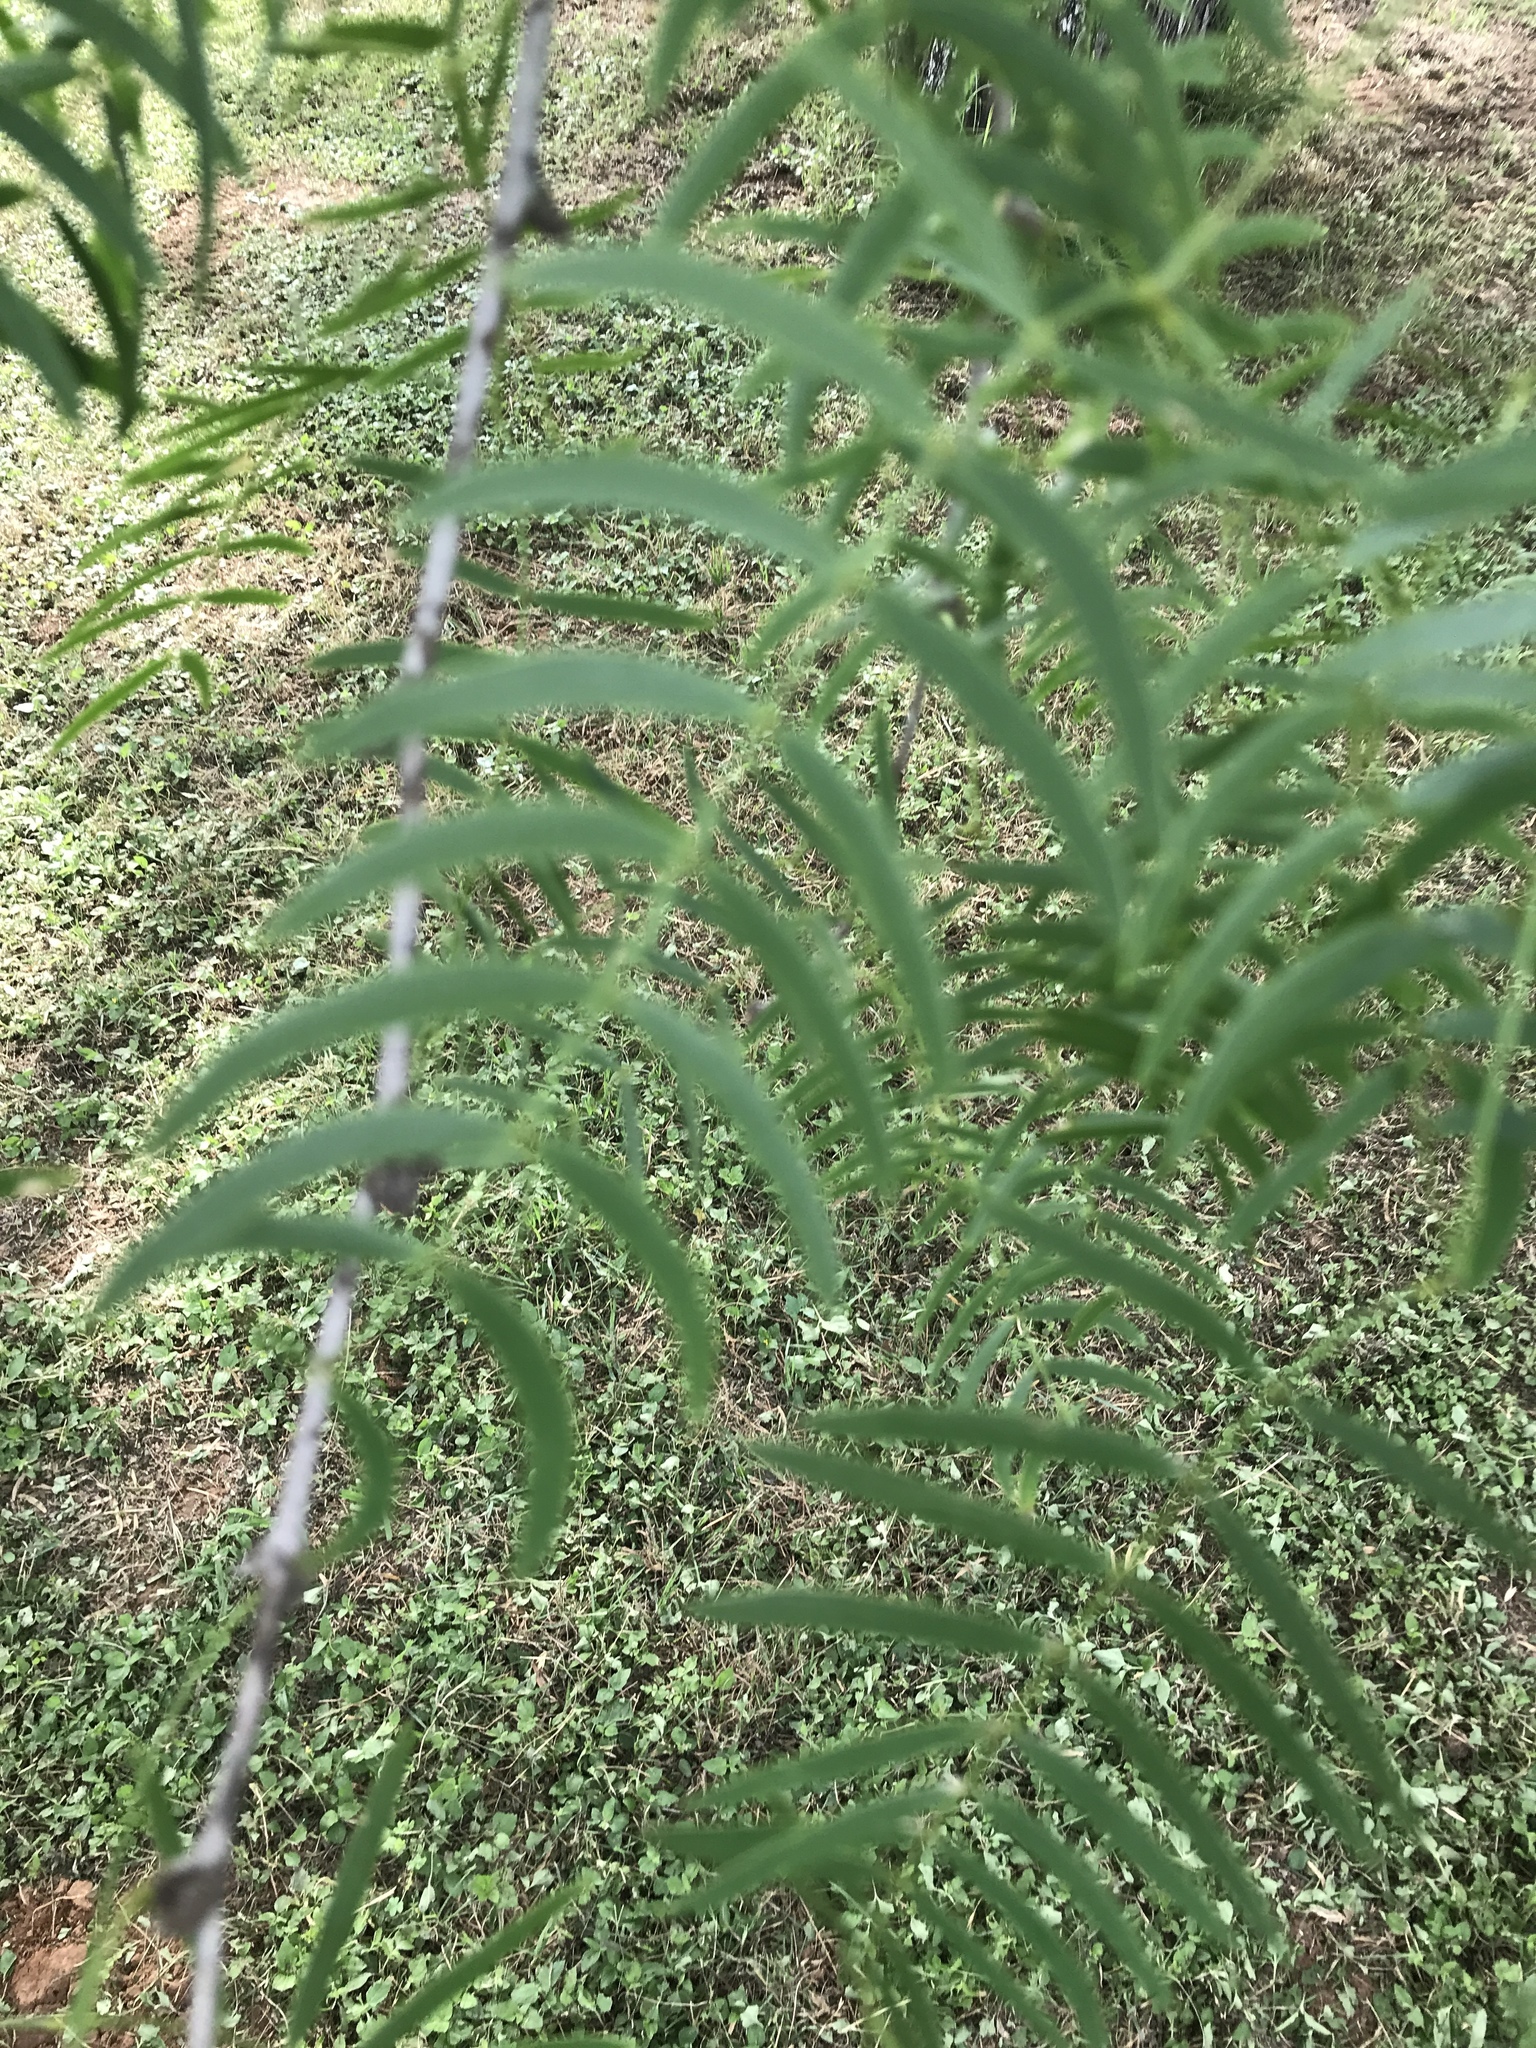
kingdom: Plantae
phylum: Tracheophyta
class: Magnoliopsida
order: Fabales
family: Fabaceae
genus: Prosopis
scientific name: Prosopis glandulosa
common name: Honey mesquite
